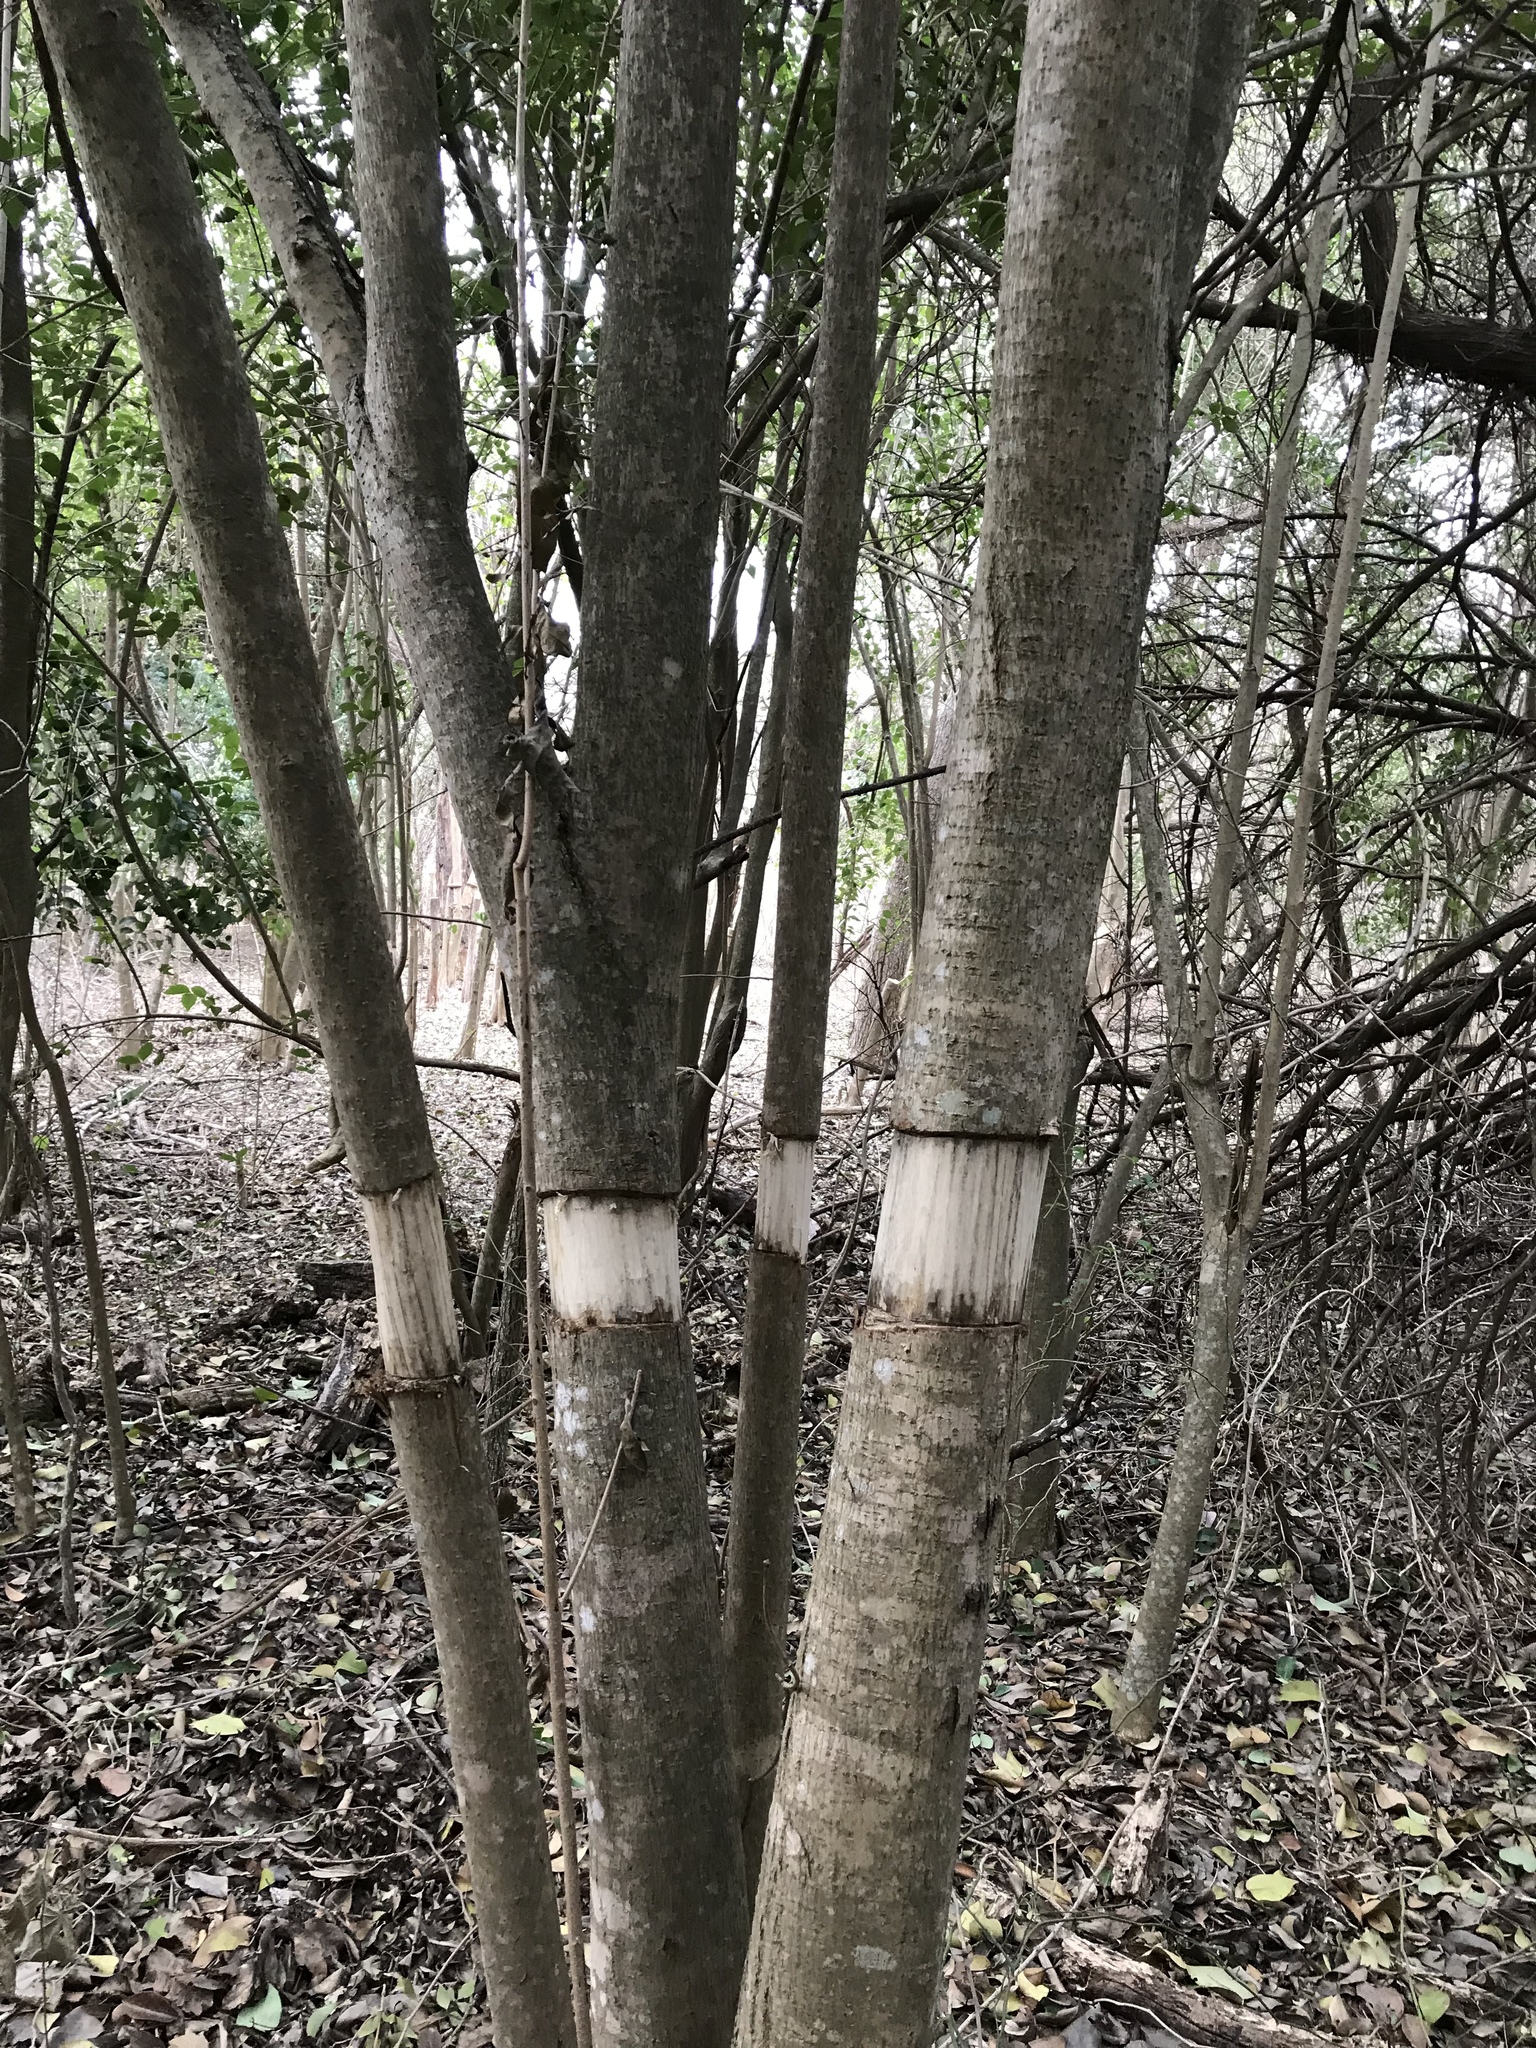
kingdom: Plantae
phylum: Tracheophyta
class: Magnoliopsida
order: Lamiales
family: Oleaceae
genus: Ligustrum
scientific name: Ligustrum lucidum
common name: Glossy privet
